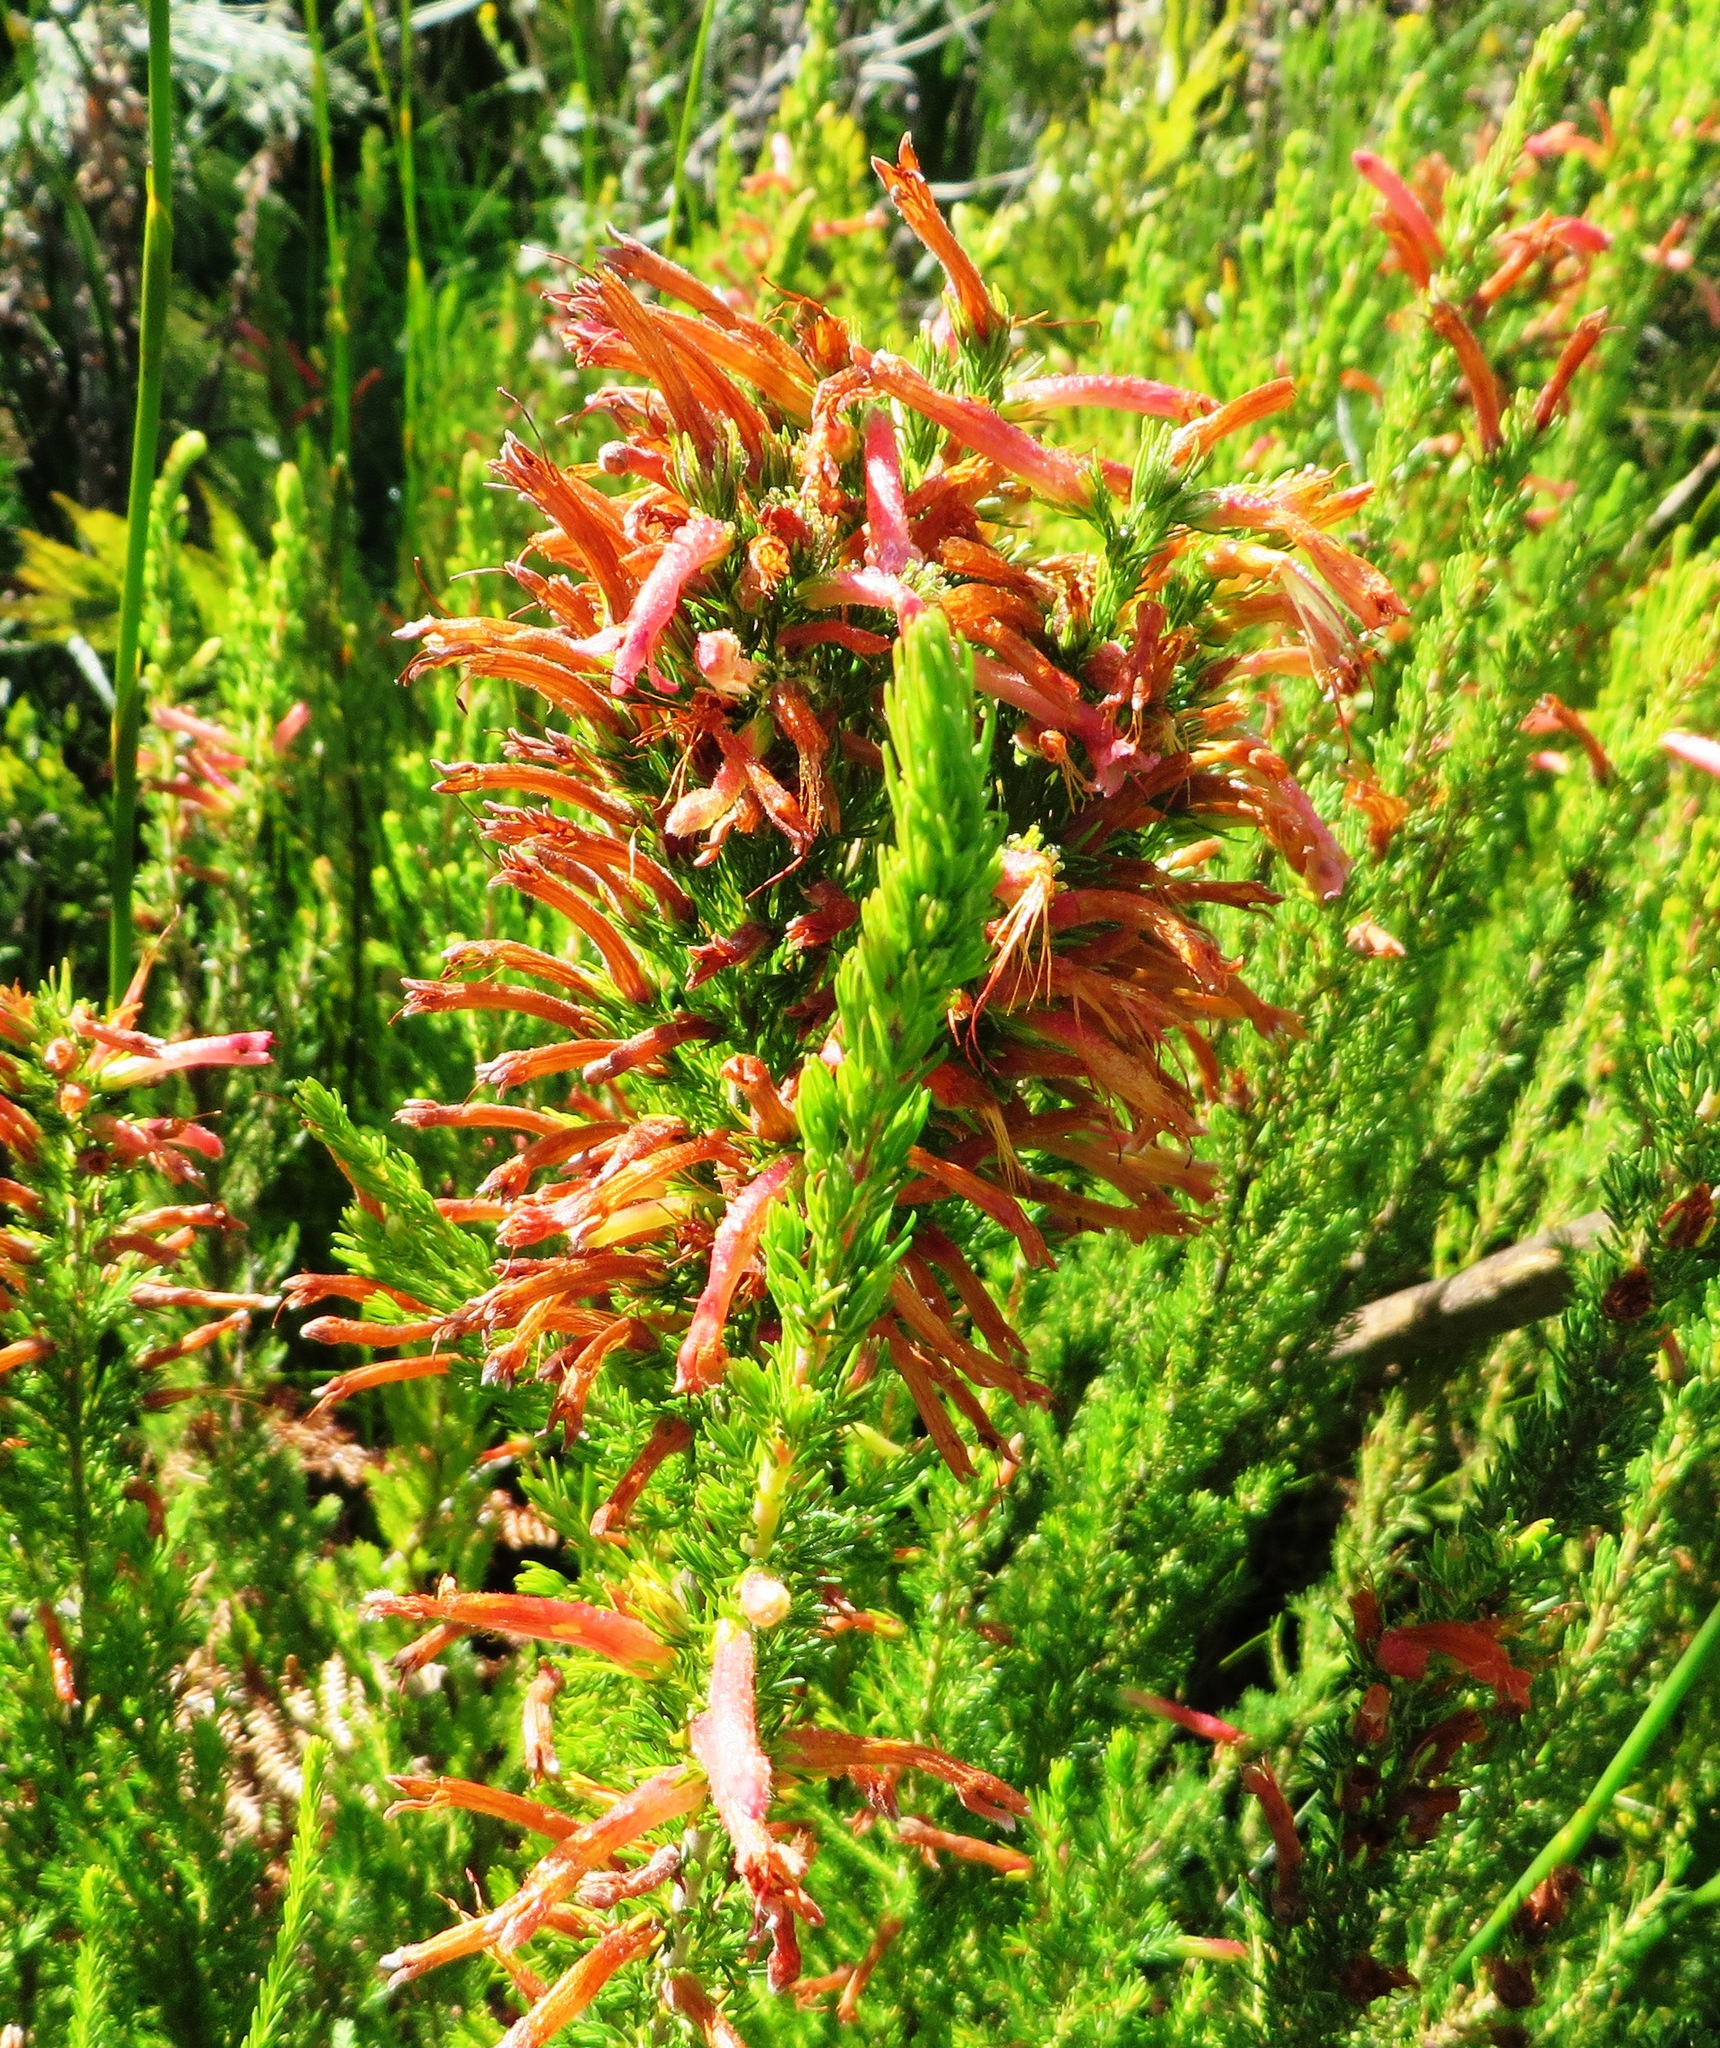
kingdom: Plantae
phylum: Tracheophyta
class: Magnoliopsida
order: Ericales
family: Ericaceae
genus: Erica
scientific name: Erica curviflora
